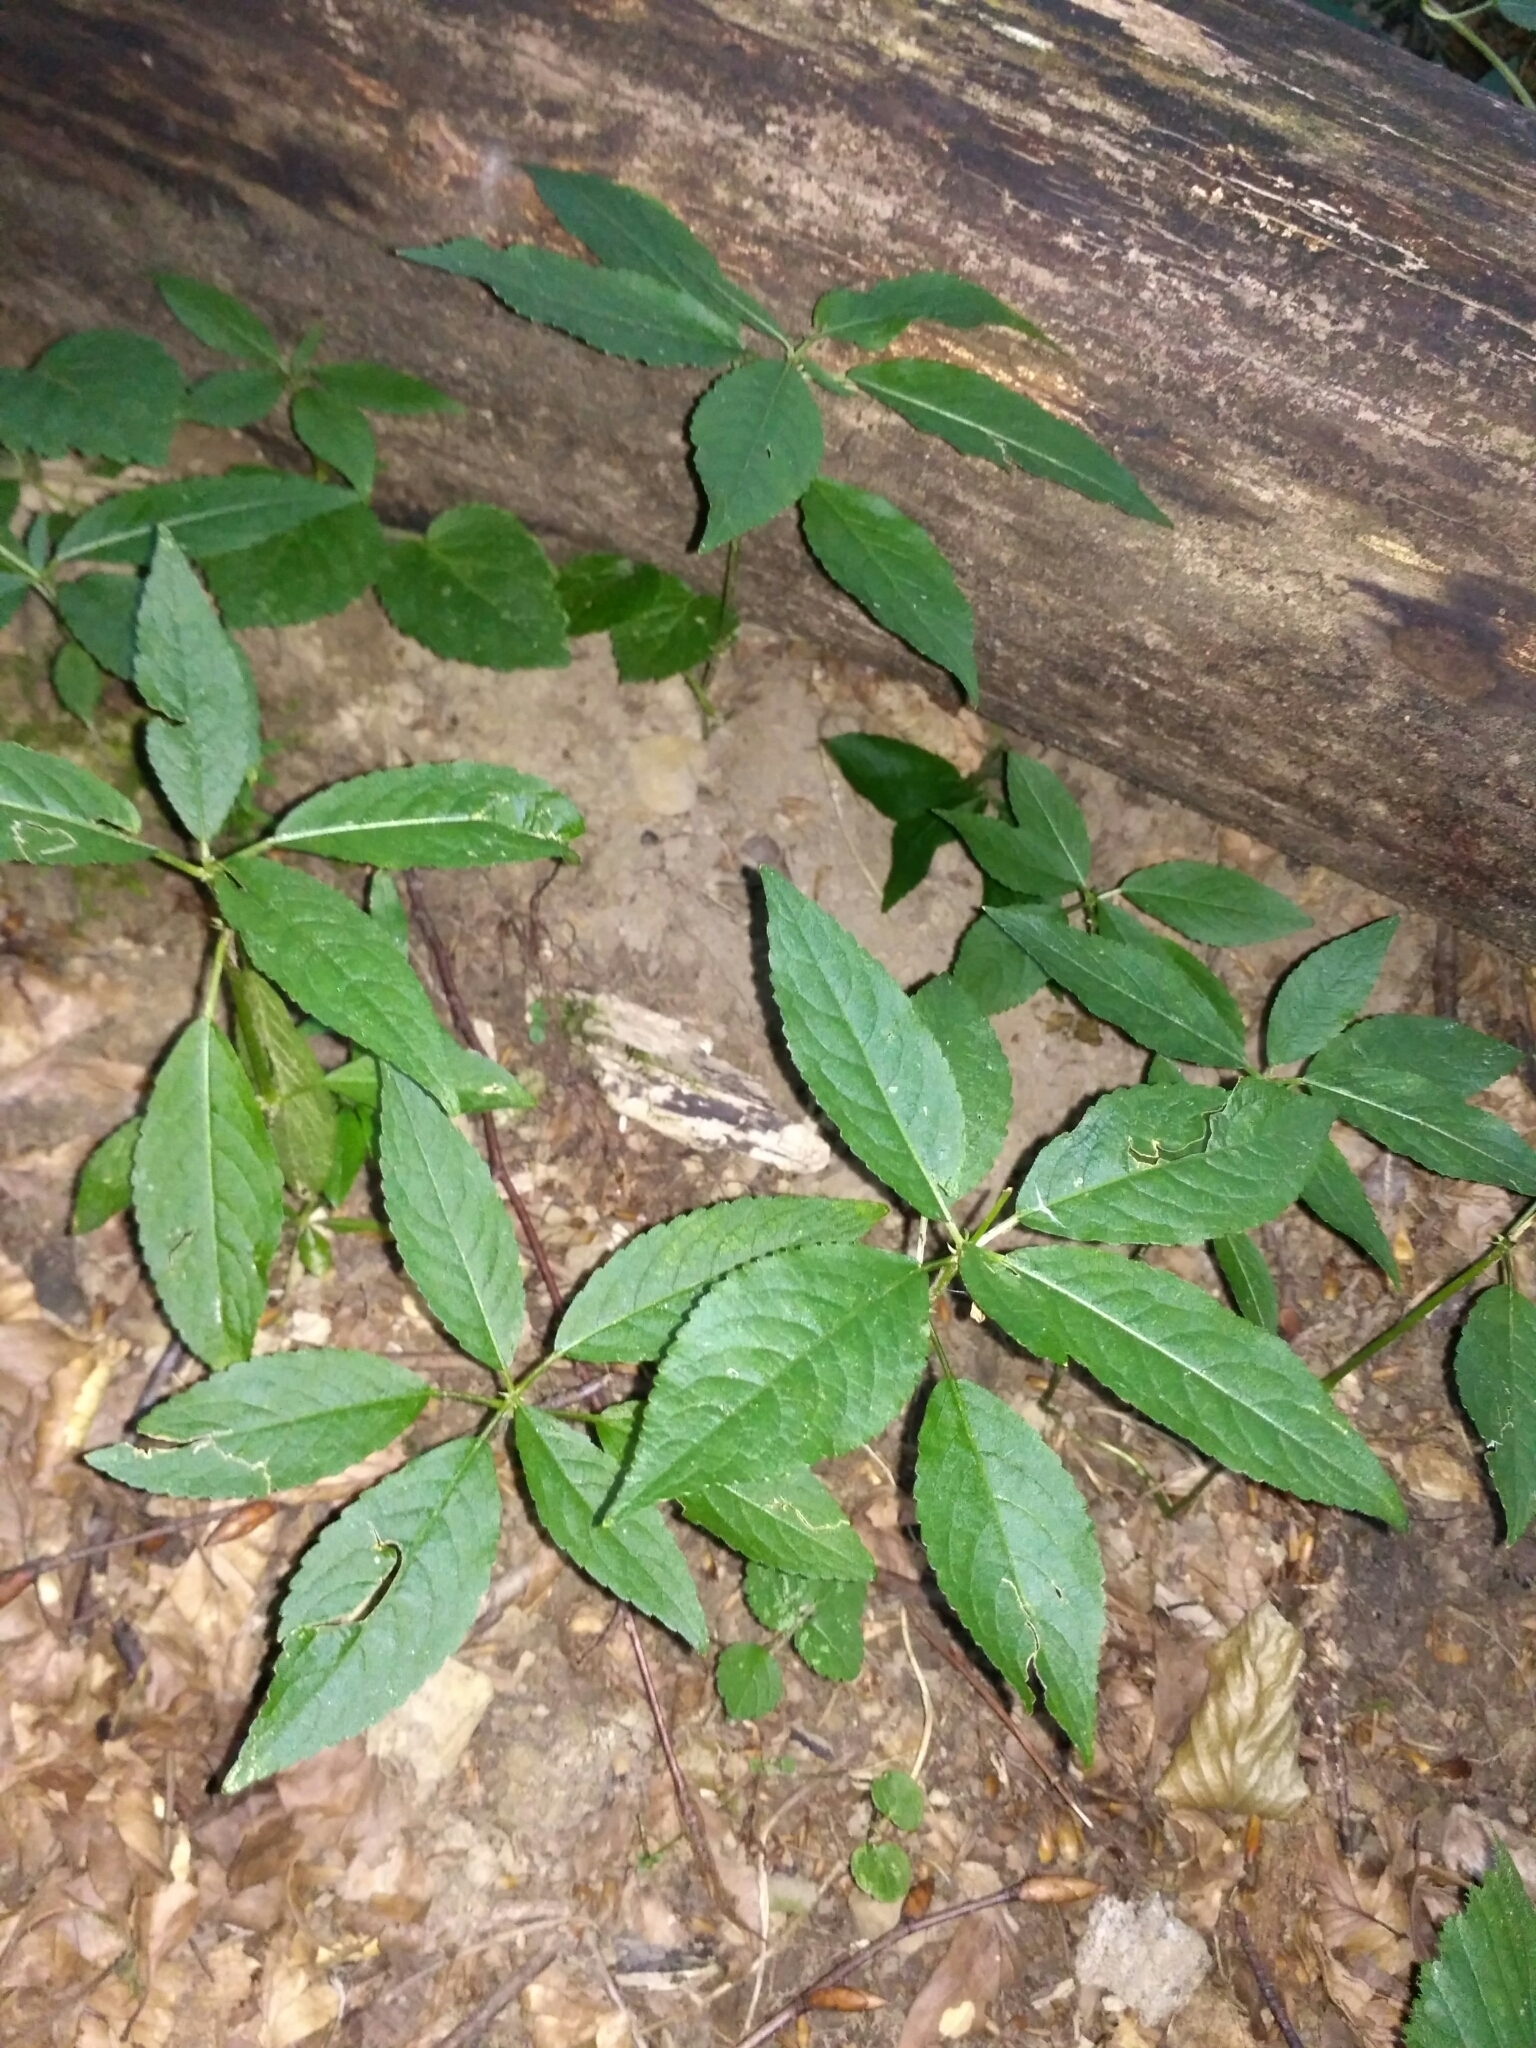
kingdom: Plantae
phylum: Tracheophyta
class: Magnoliopsida
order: Malpighiales
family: Euphorbiaceae
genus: Mercurialis
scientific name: Mercurialis perennis
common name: Dog mercury
